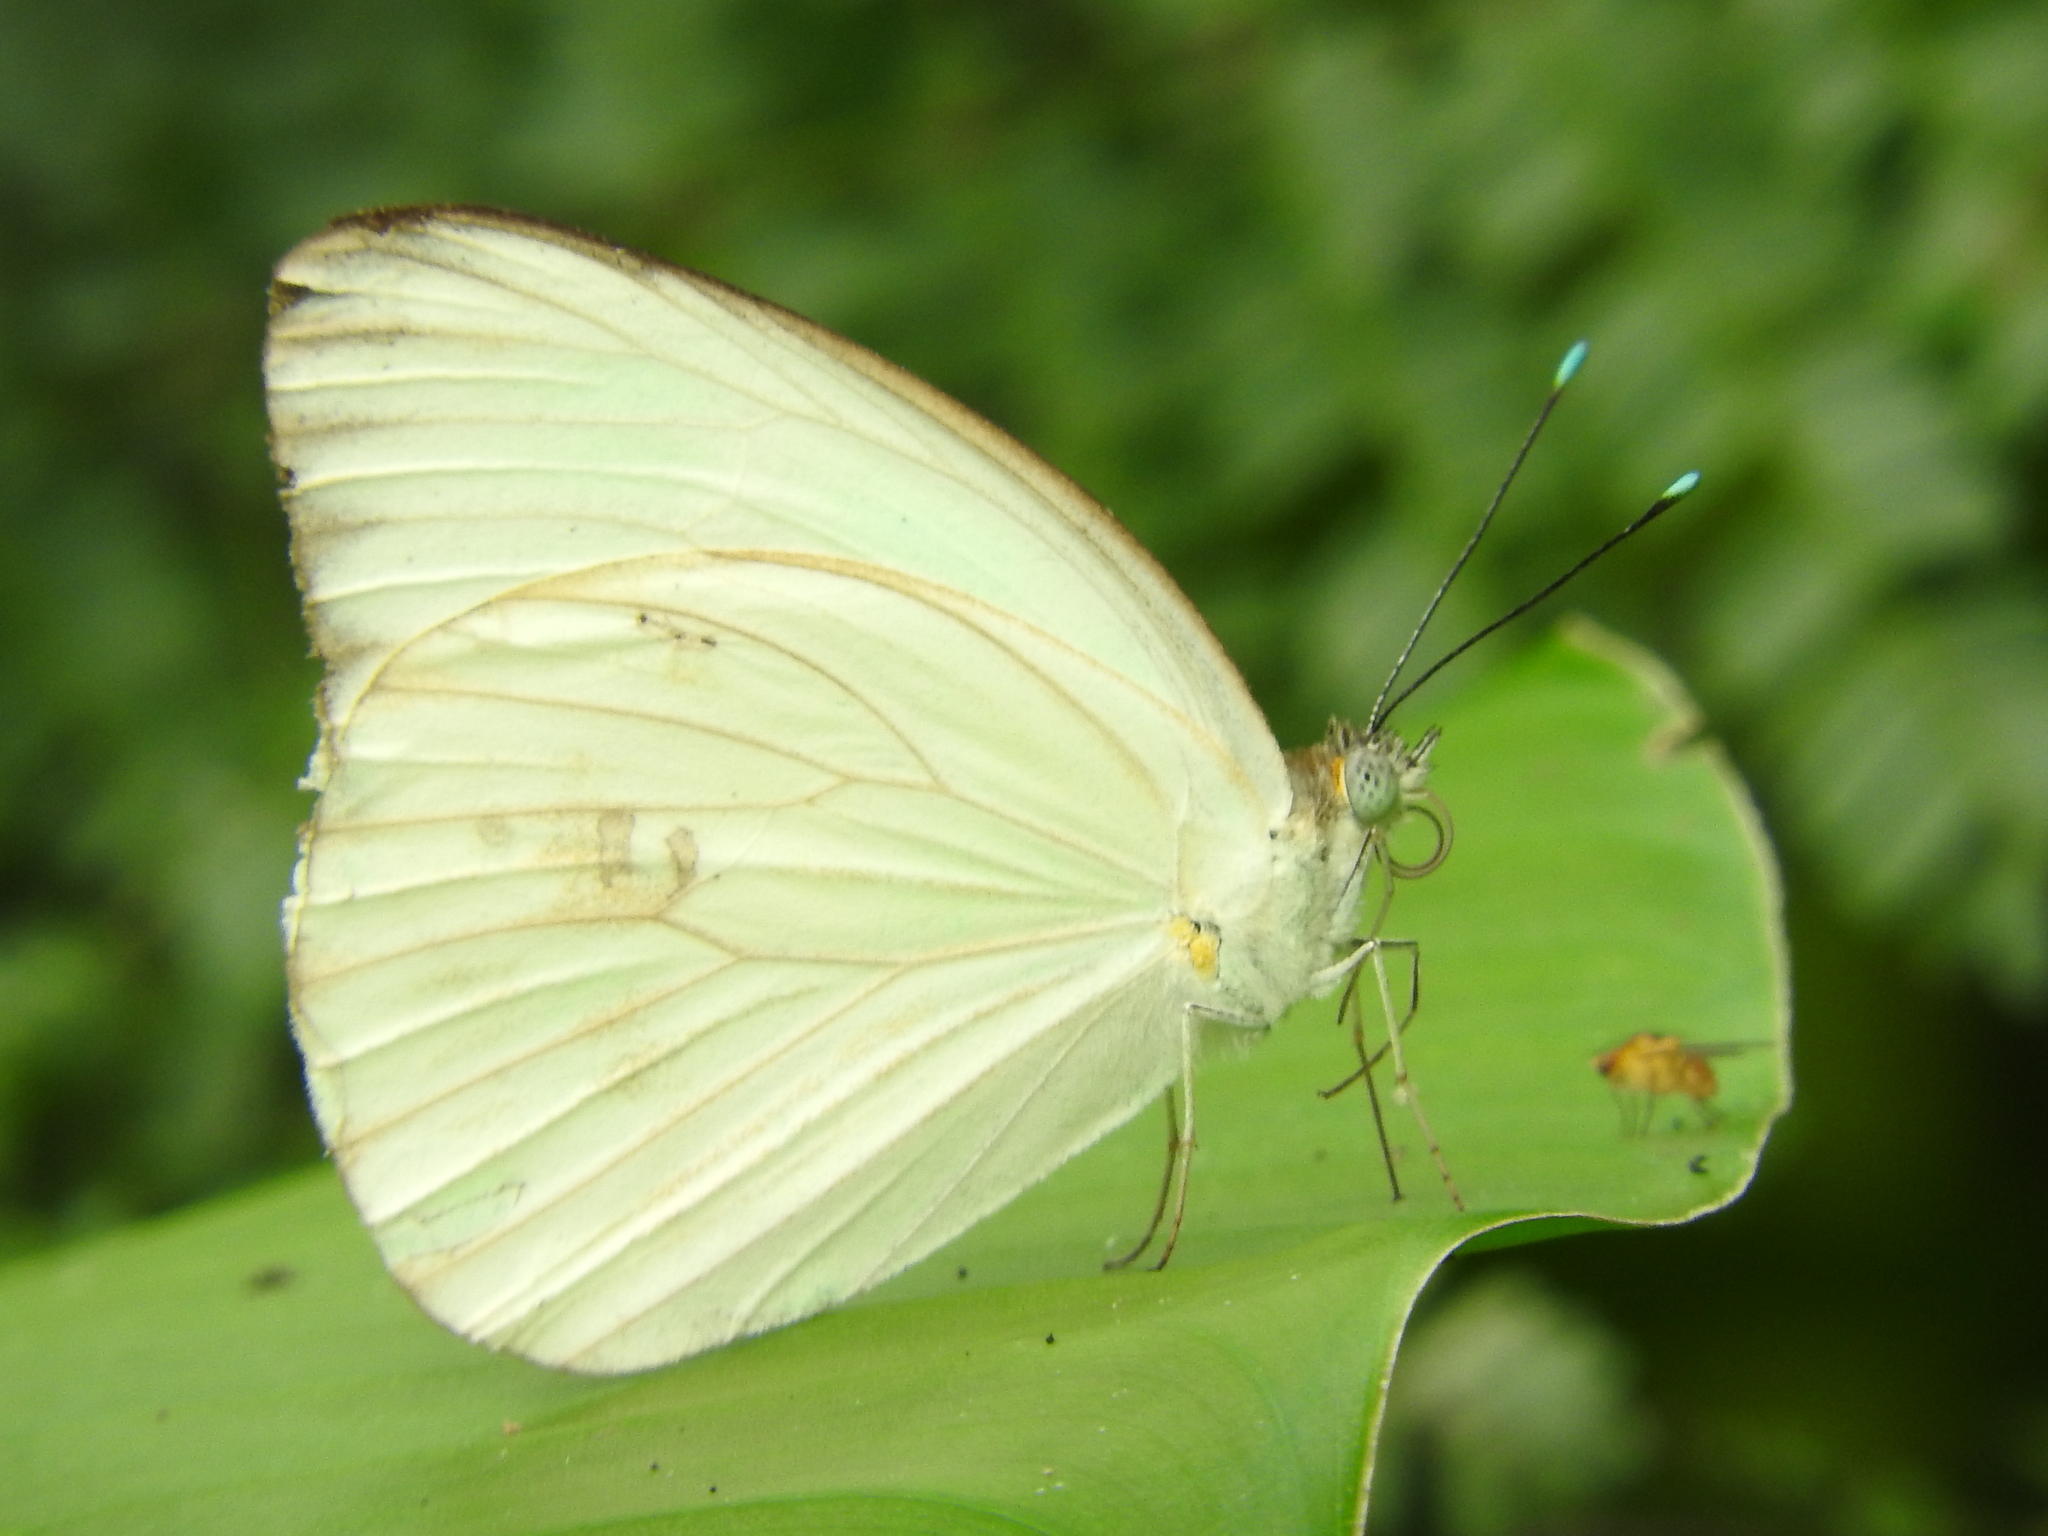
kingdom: Animalia
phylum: Arthropoda
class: Insecta
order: Lepidoptera
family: Pieridae
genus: Ascia
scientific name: Ascia monuste
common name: Great southern white
